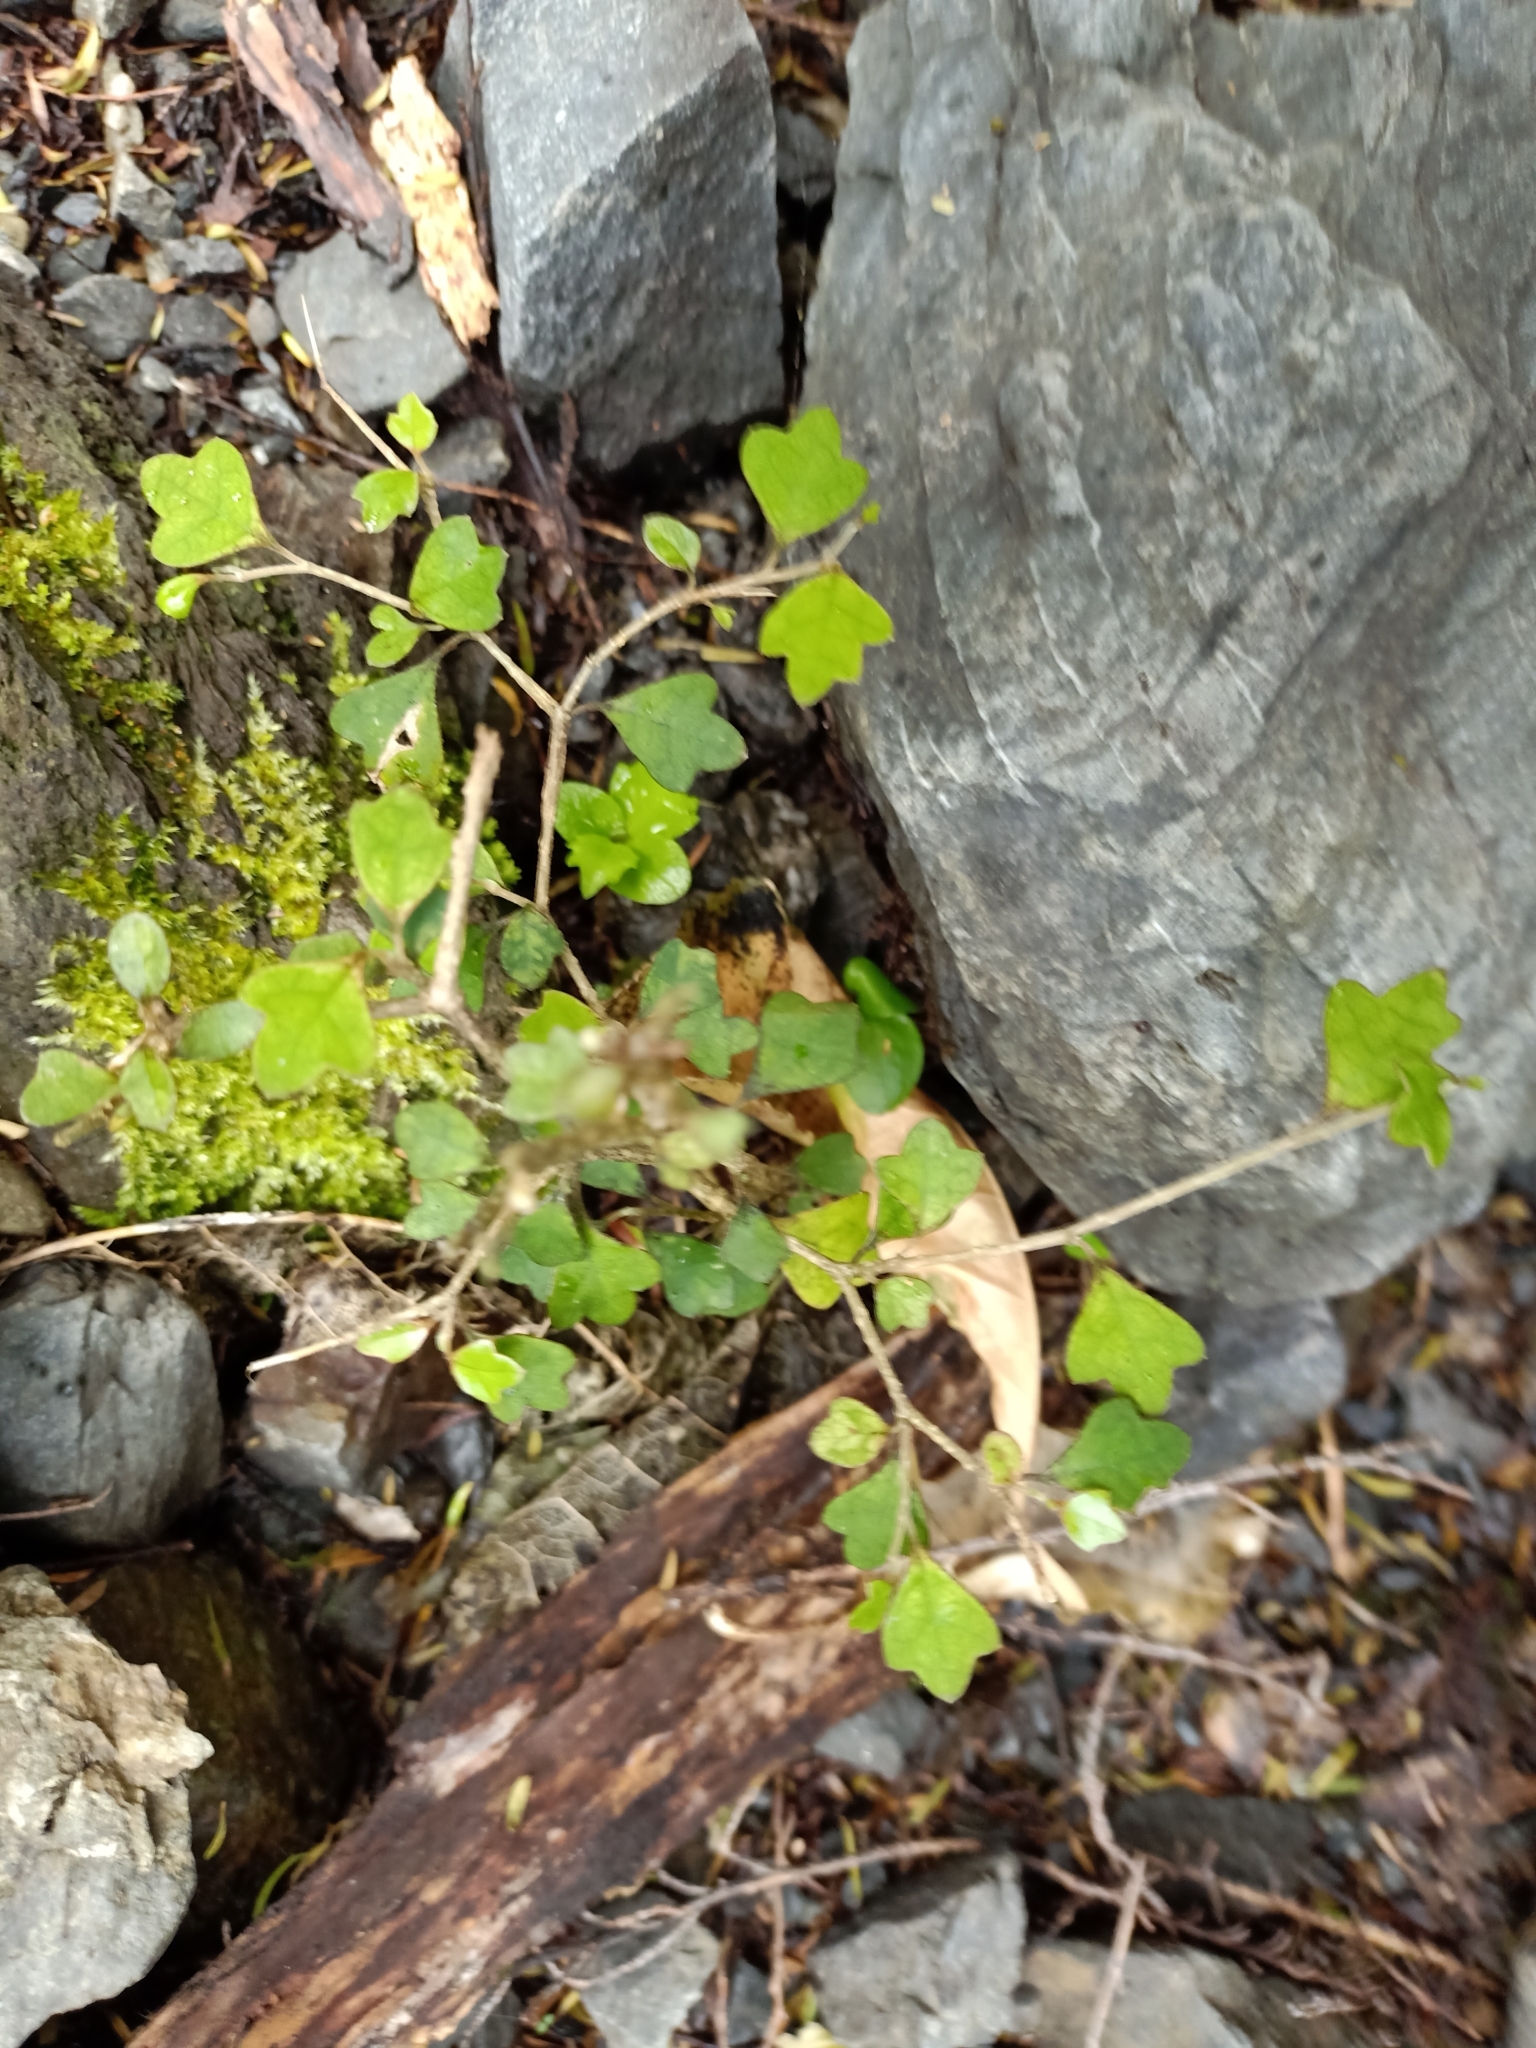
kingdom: Plantae
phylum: Tracheophyta
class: Magnoliopsida
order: Apiales
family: Pennantiaceae
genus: Pennantia
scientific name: Pennantia corymbosa
